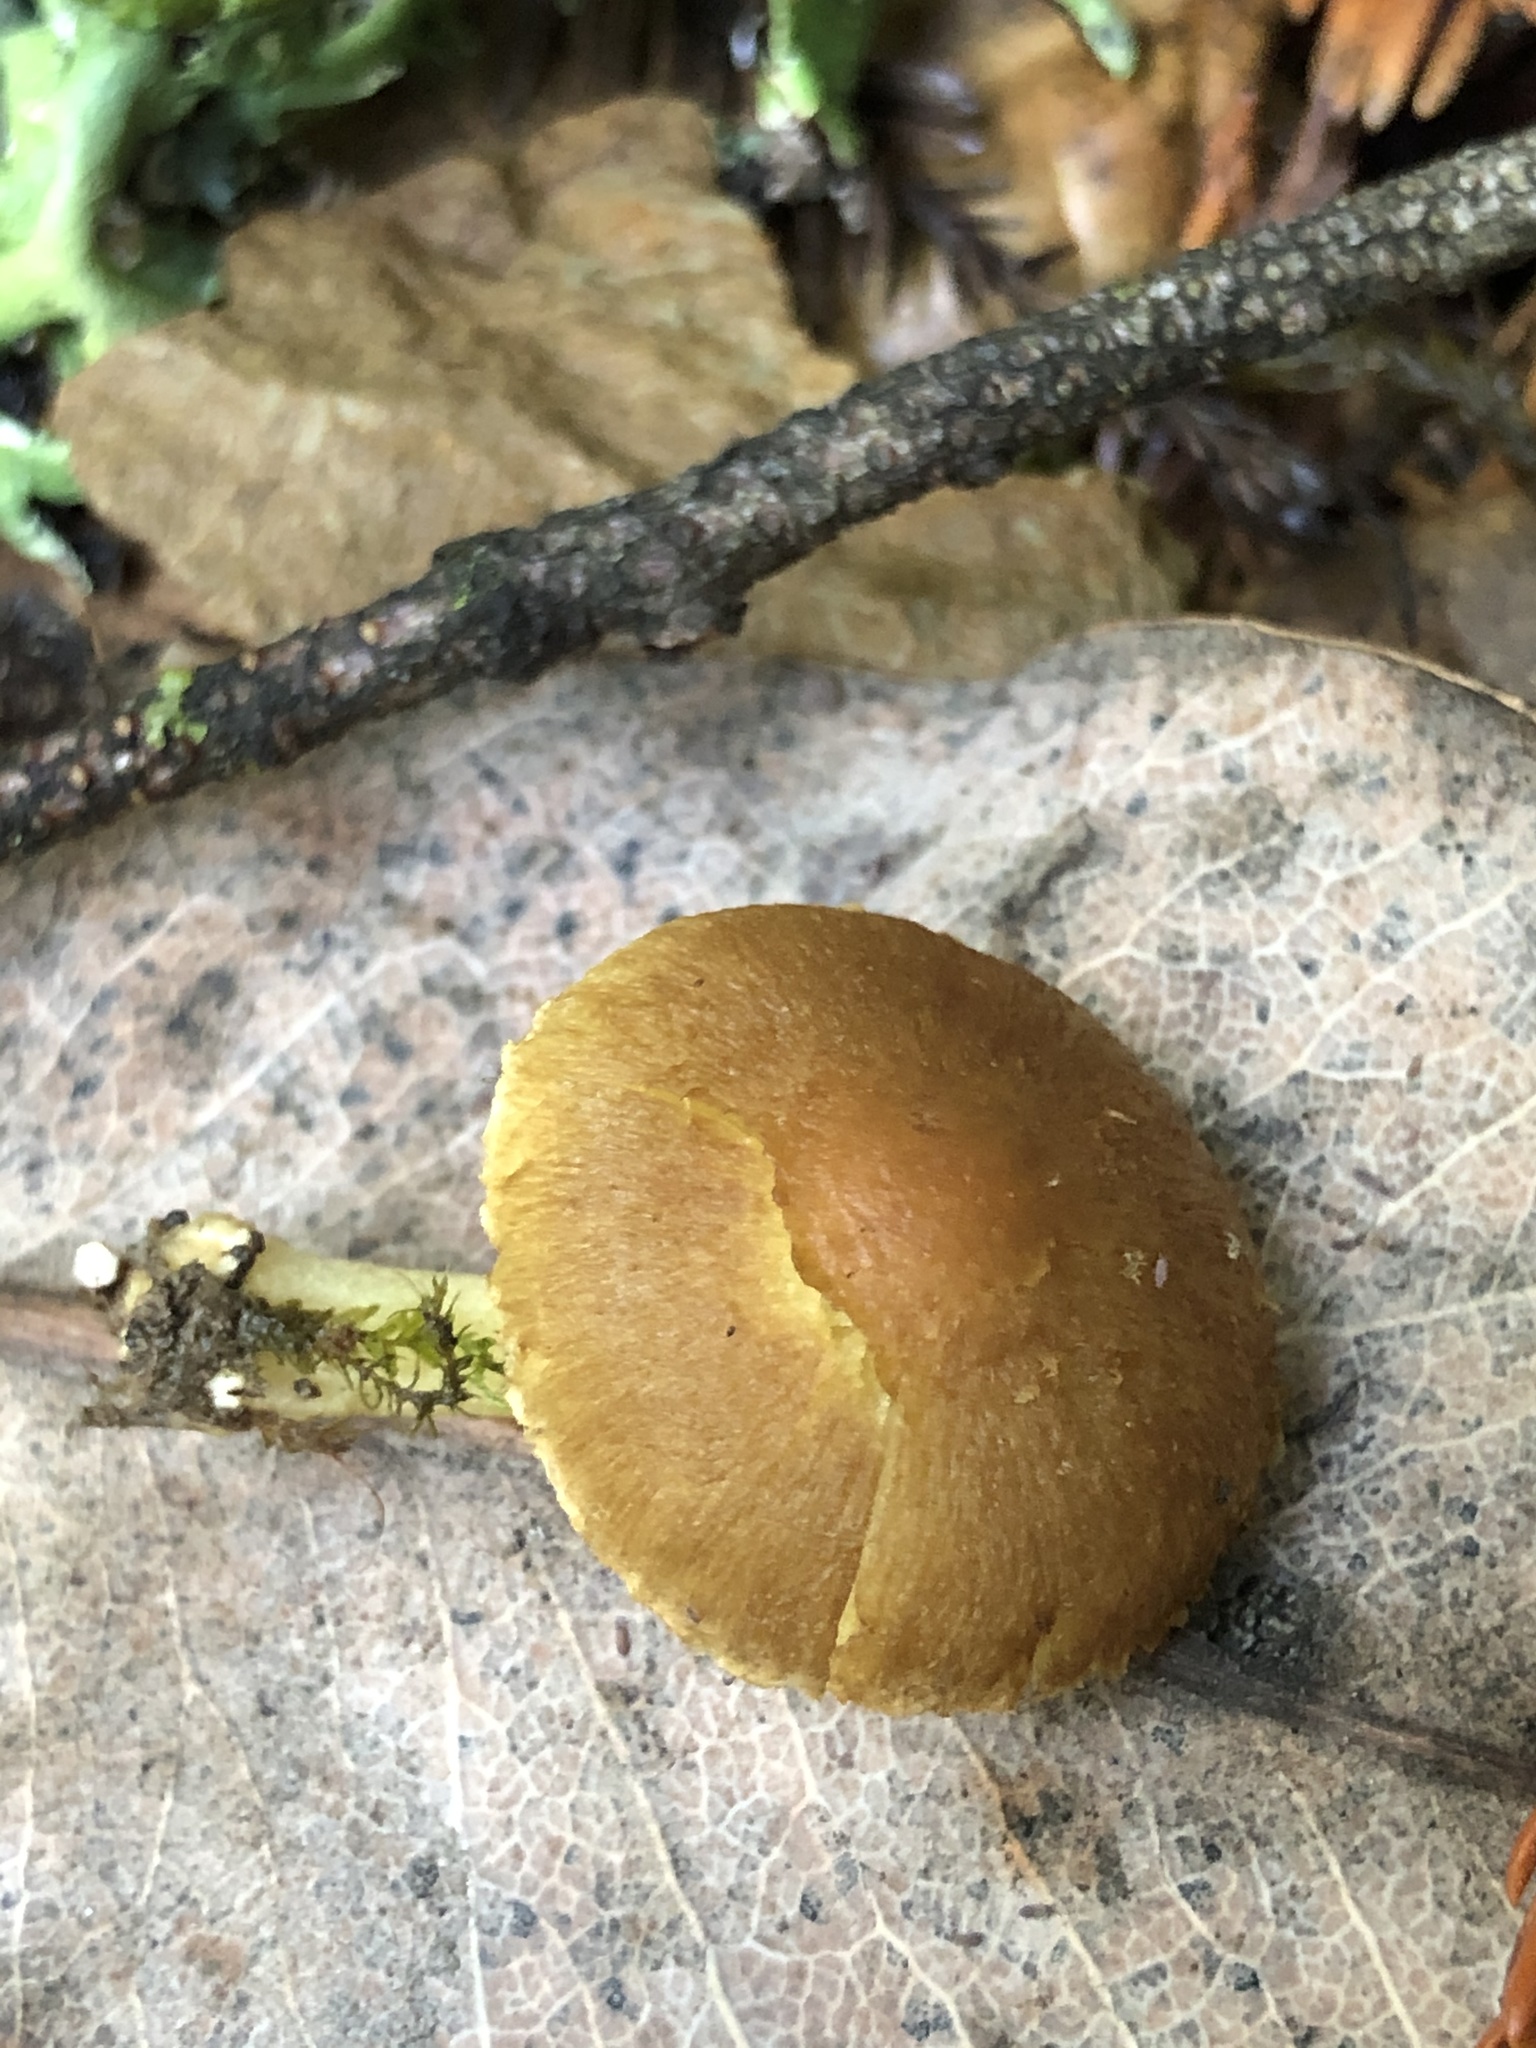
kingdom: Fungi
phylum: Basidiomycota
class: Agaricomycetes
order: Agaricales
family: Inocybaceae
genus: Inocybe
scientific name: Inocybe mycenoides
